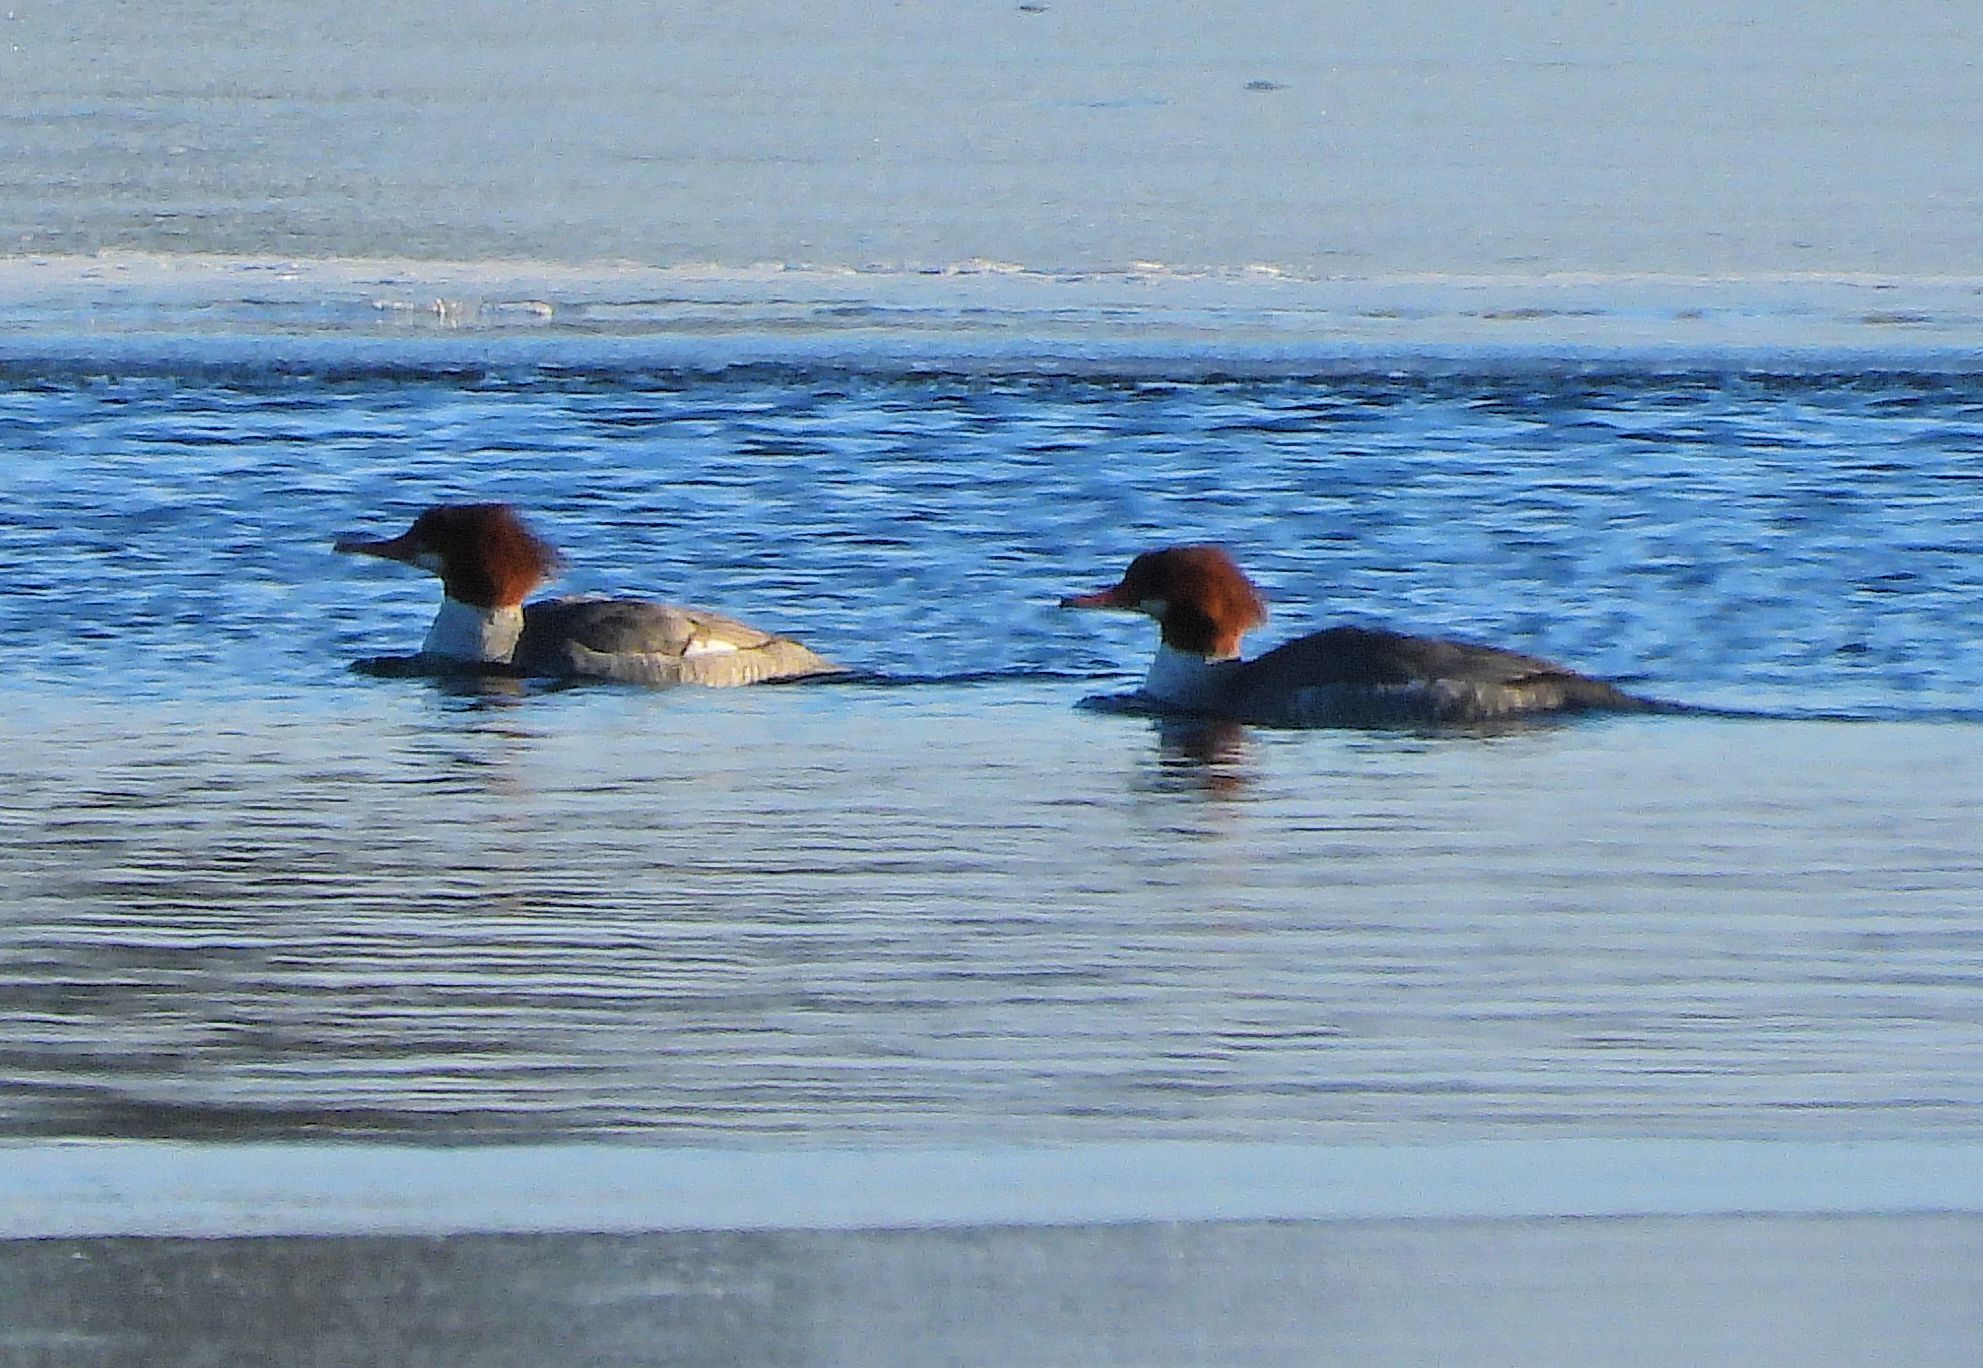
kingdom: Animalia
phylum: Chordata
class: Aves
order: Anseriformes
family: Anatidae
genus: Mergus
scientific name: Mergus merganser
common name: Common merganser
